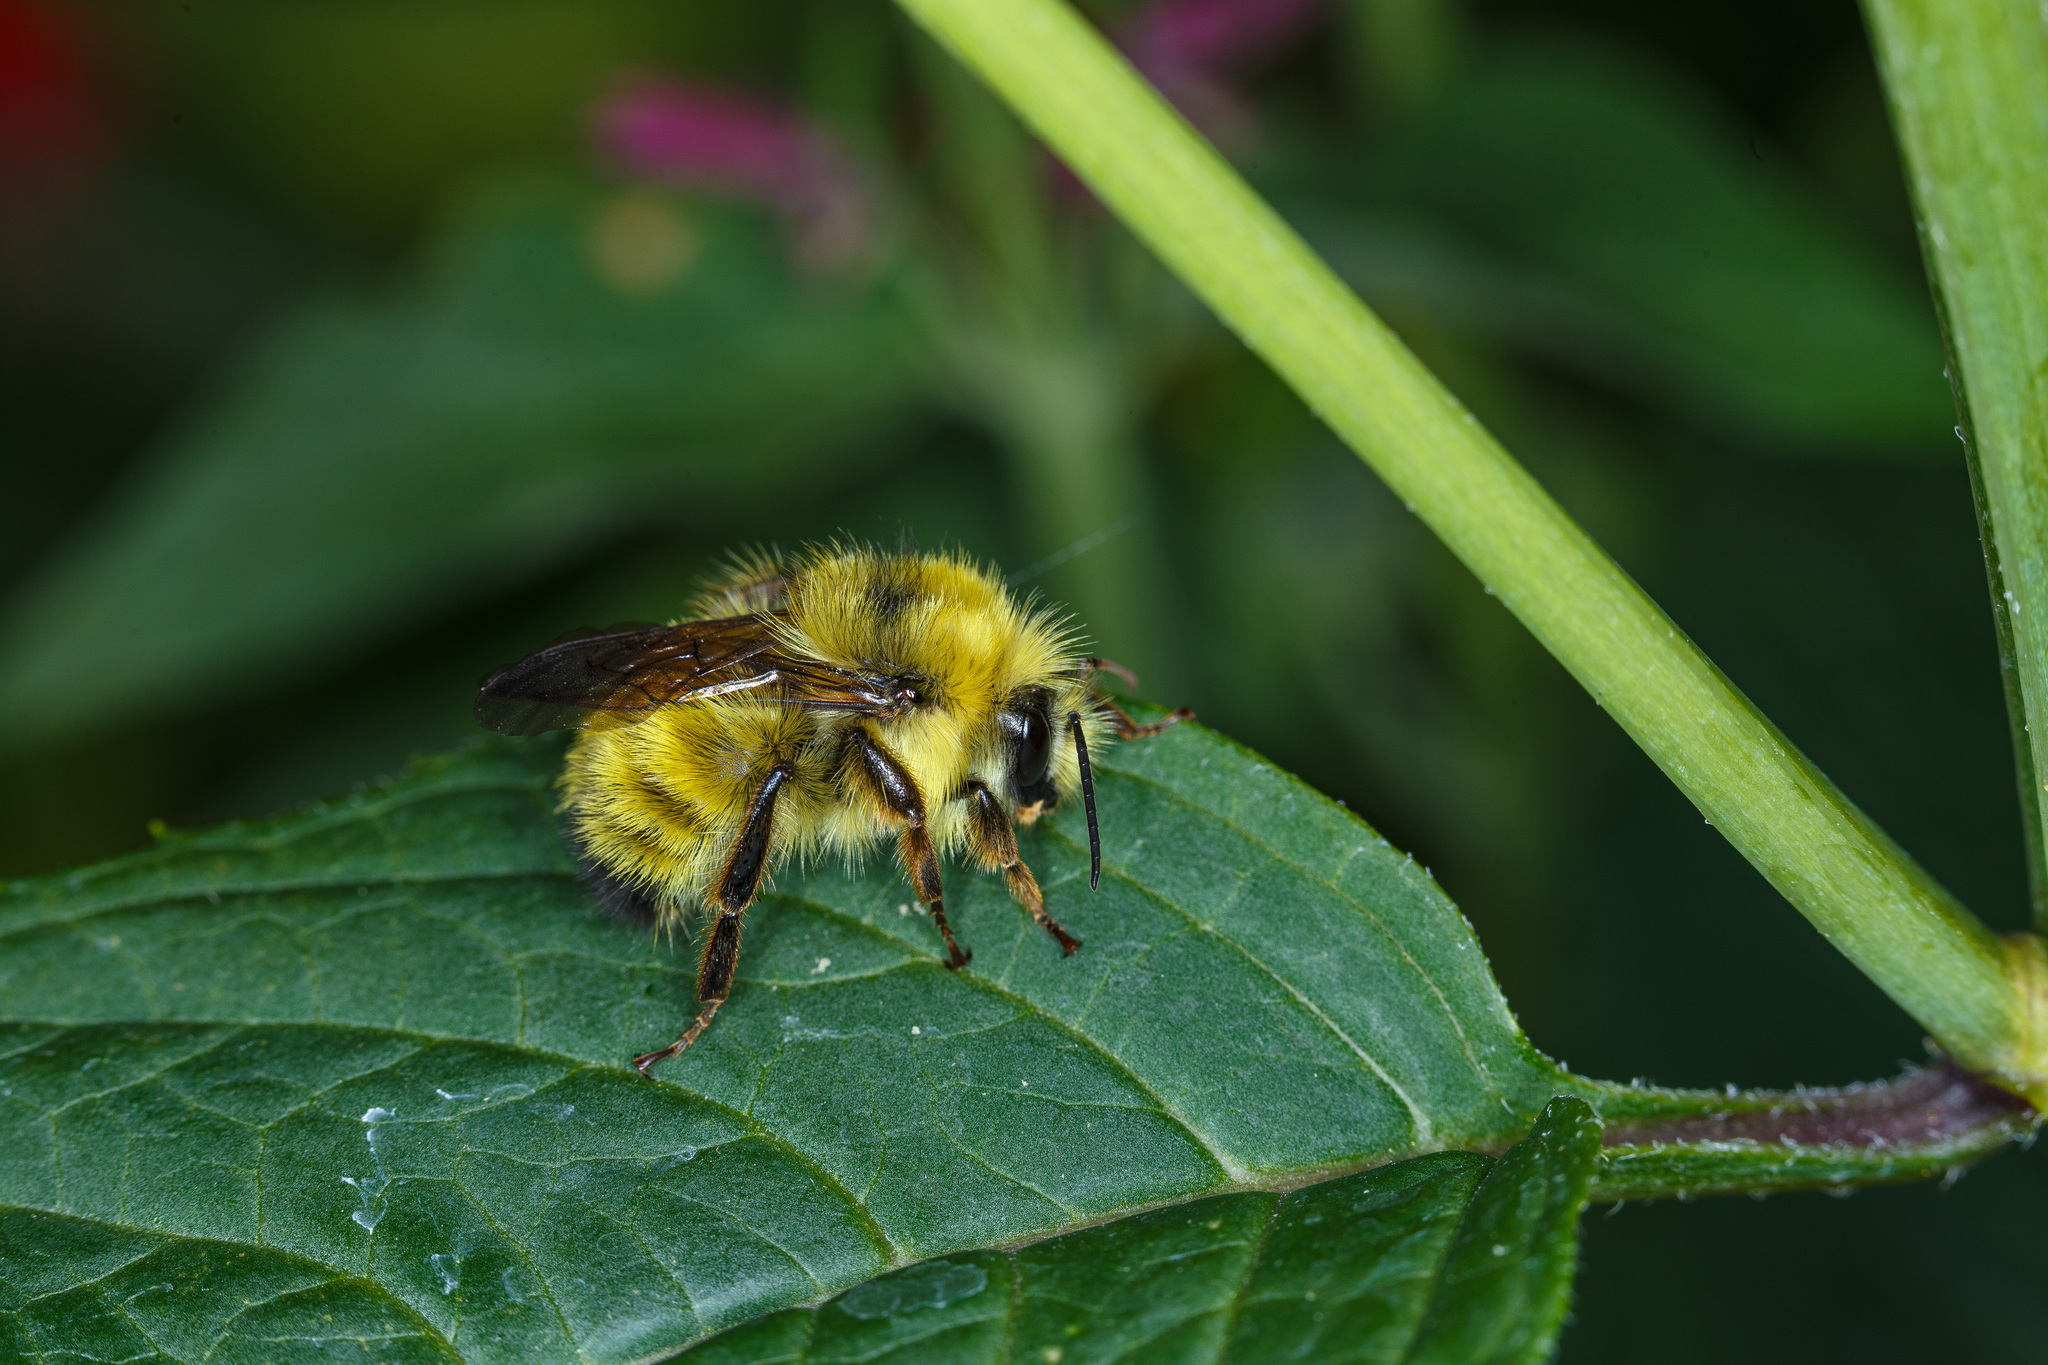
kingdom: Animalia
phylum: Arthropoda
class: Insecta
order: Hymenoptera
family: Apidae
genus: Bombus
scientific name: Bombus flavifrons
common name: Yellow head bumble bee
